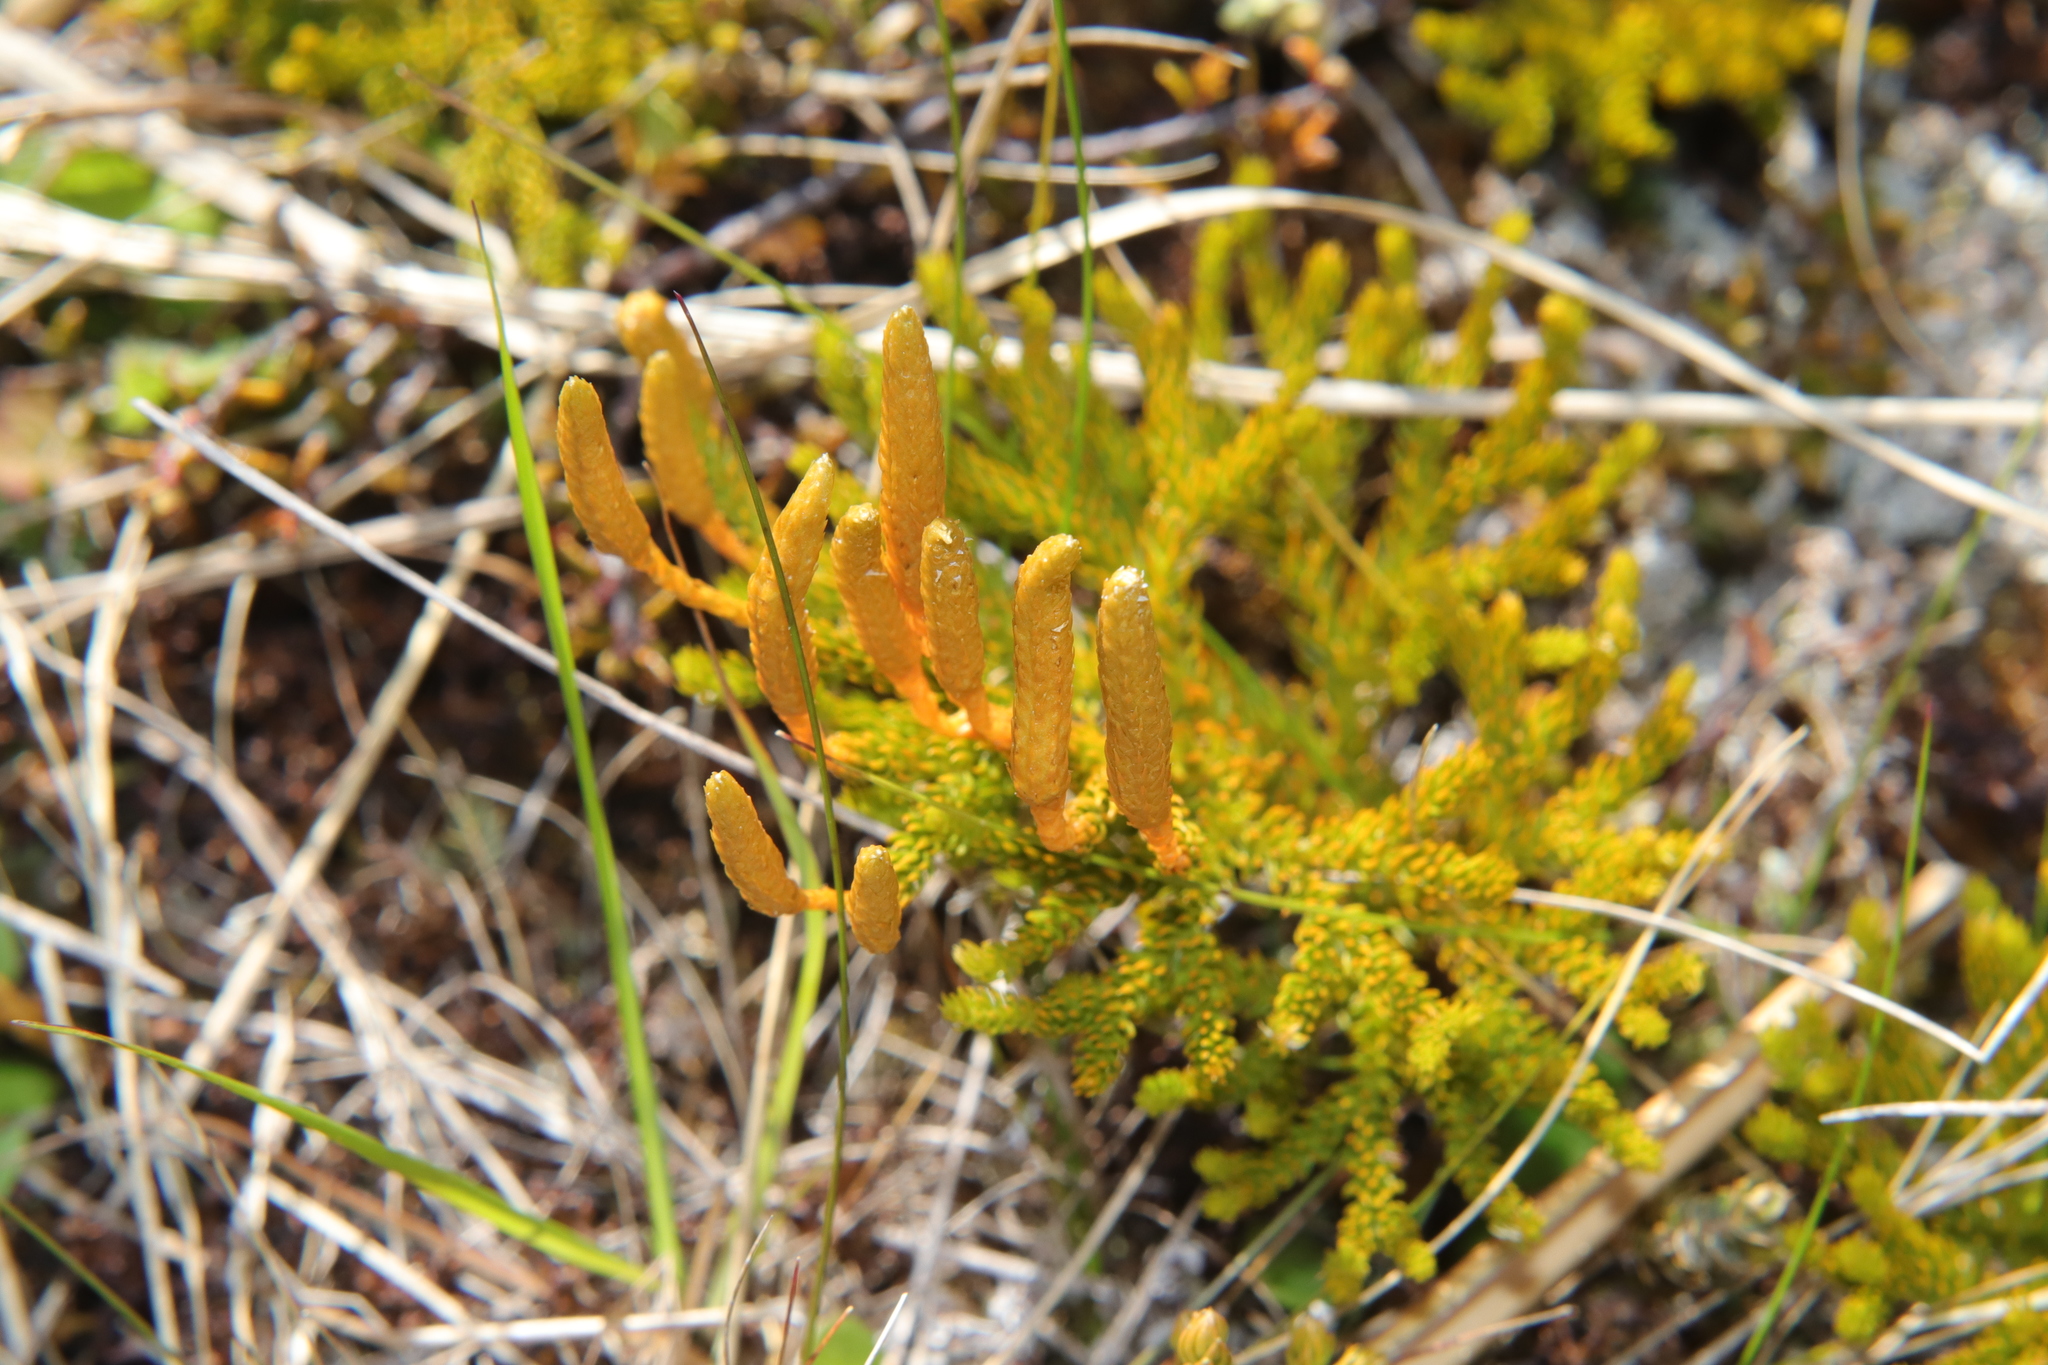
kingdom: Plantae
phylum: Tracheophyta
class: Lycopodiopsida
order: Lycopodiales
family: Lycopodiaceae
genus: Austrolycopodium
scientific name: Austrolycopodium fastigiatum
